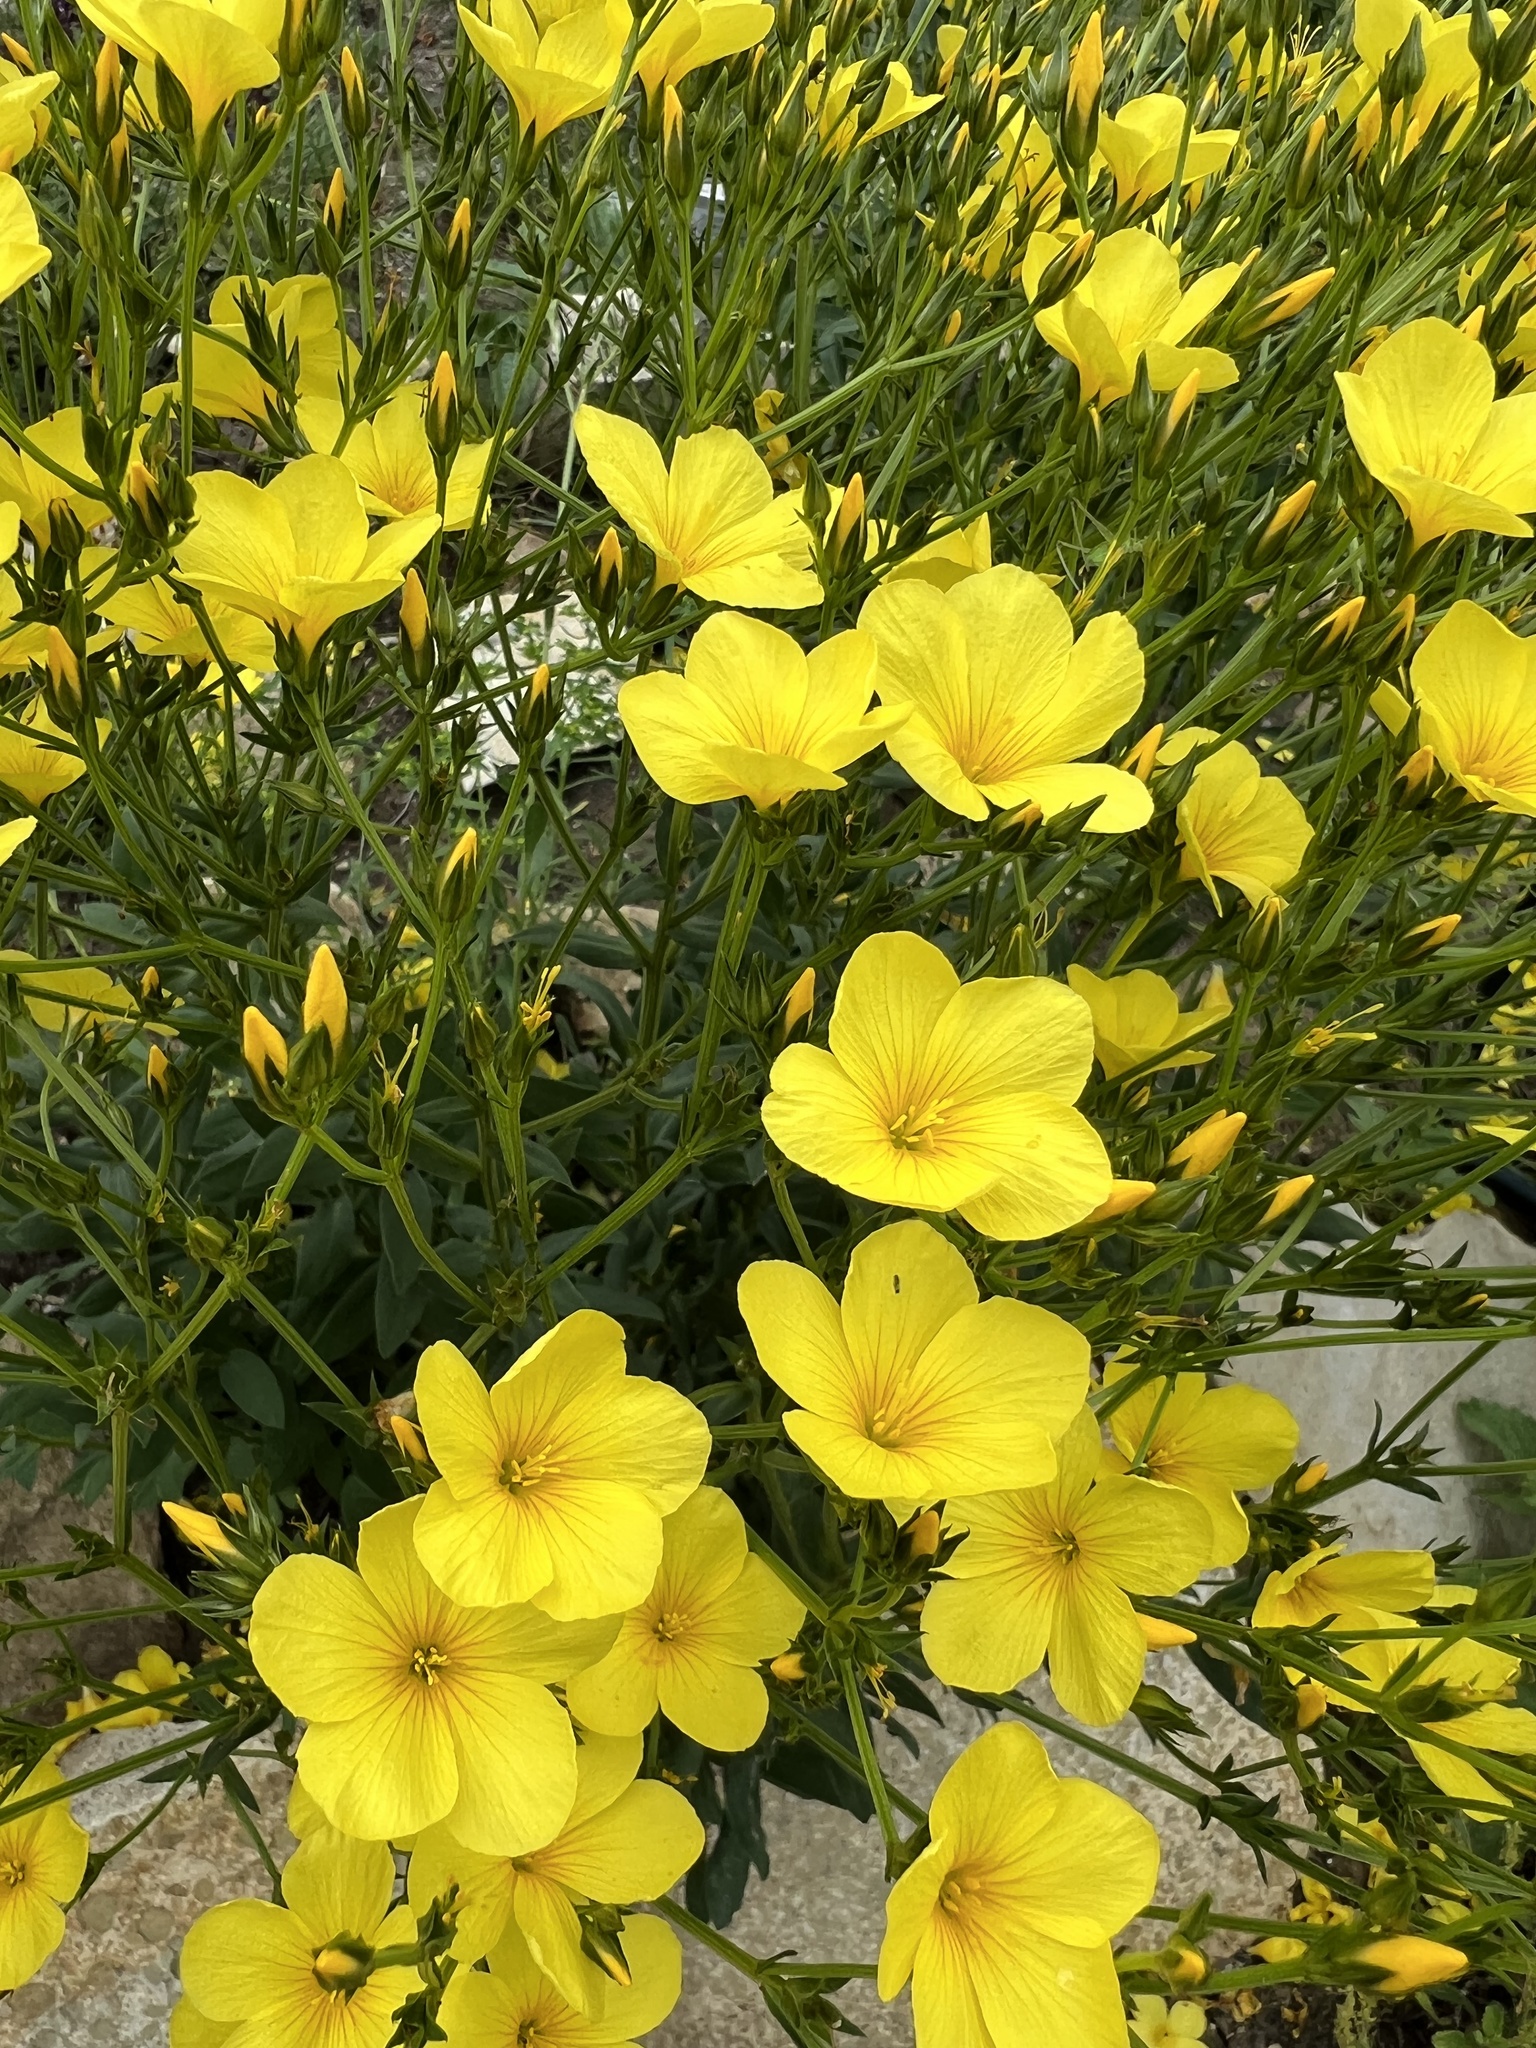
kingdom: Plantae
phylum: Tracheophyta
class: Magnoliopsida
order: Malpighiales
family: Linaceae
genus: Linum
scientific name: Linum flavum
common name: Yellow flax
